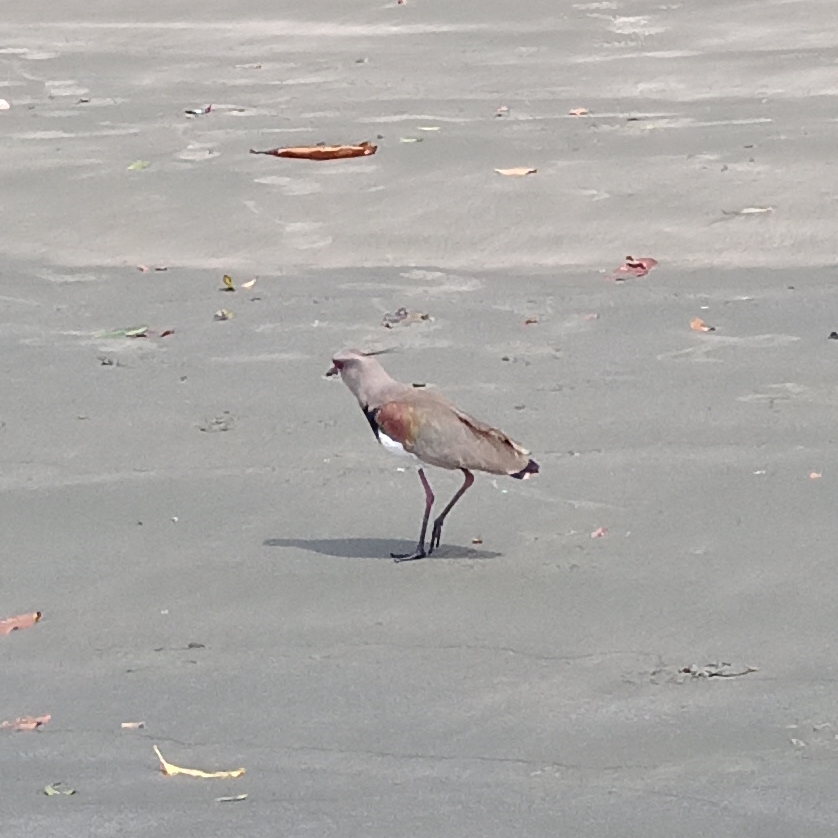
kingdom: Animalia
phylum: Chordata
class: Aves
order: Charadriiformes
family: Charadriidae
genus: Vanellus
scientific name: Vanellus chilensis
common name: Southern lapwing
